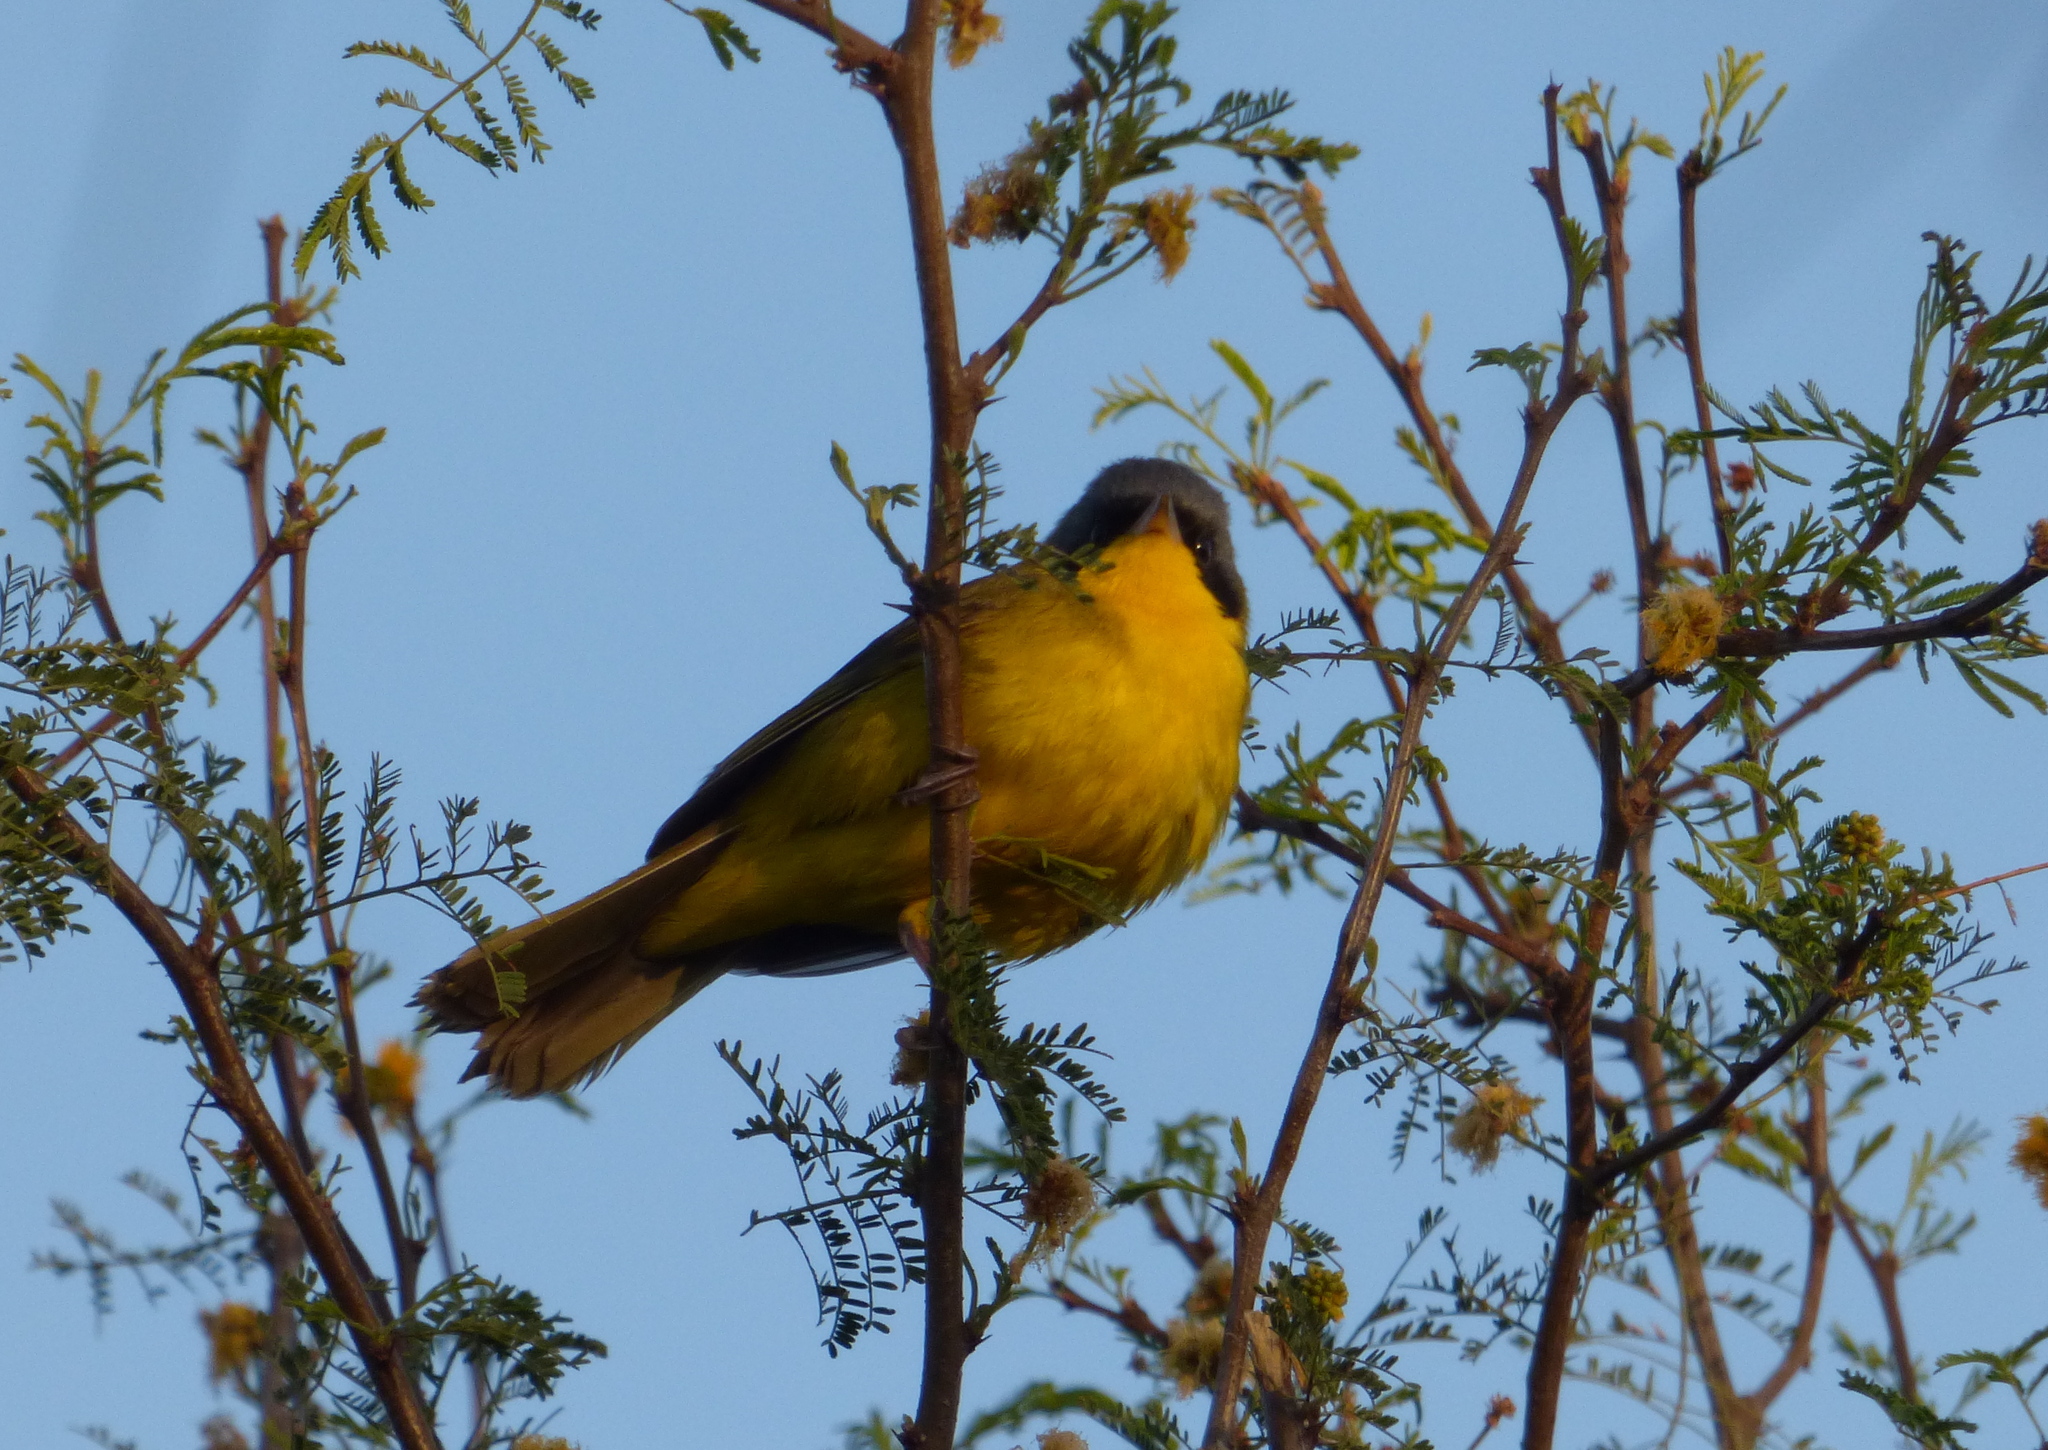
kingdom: Animalia
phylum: Chordata
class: Aves
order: Passeriformes
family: Parulidae
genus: Geothlypis
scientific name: Geothlypis velata
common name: Southern yellowthroat
